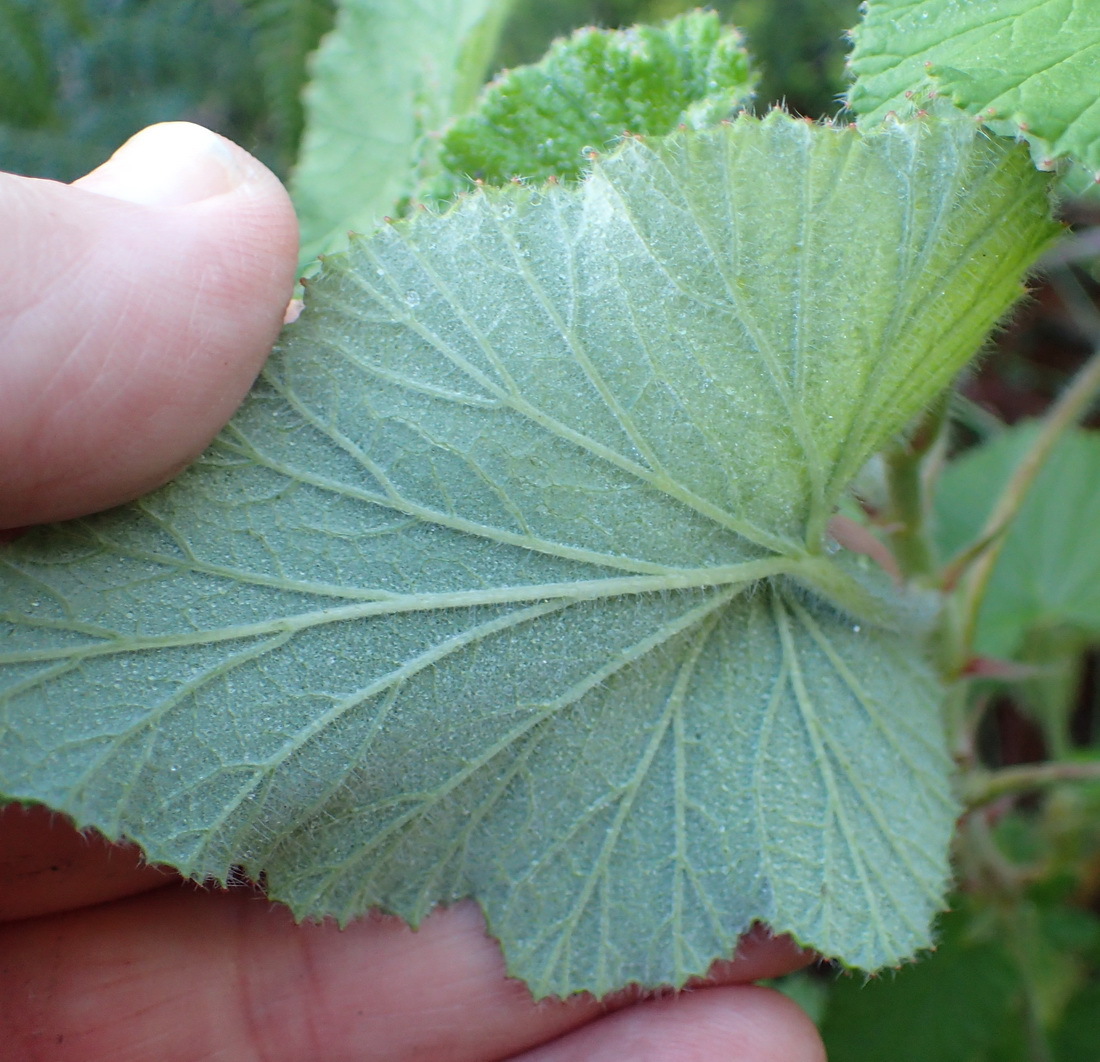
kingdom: Plantae
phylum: Tracheophyta
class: Magnoliopsida
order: Geraniales
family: Geraniaceae
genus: Pelargonium
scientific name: Pelargonium cordifolium
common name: Heart-leaf pelargonium
